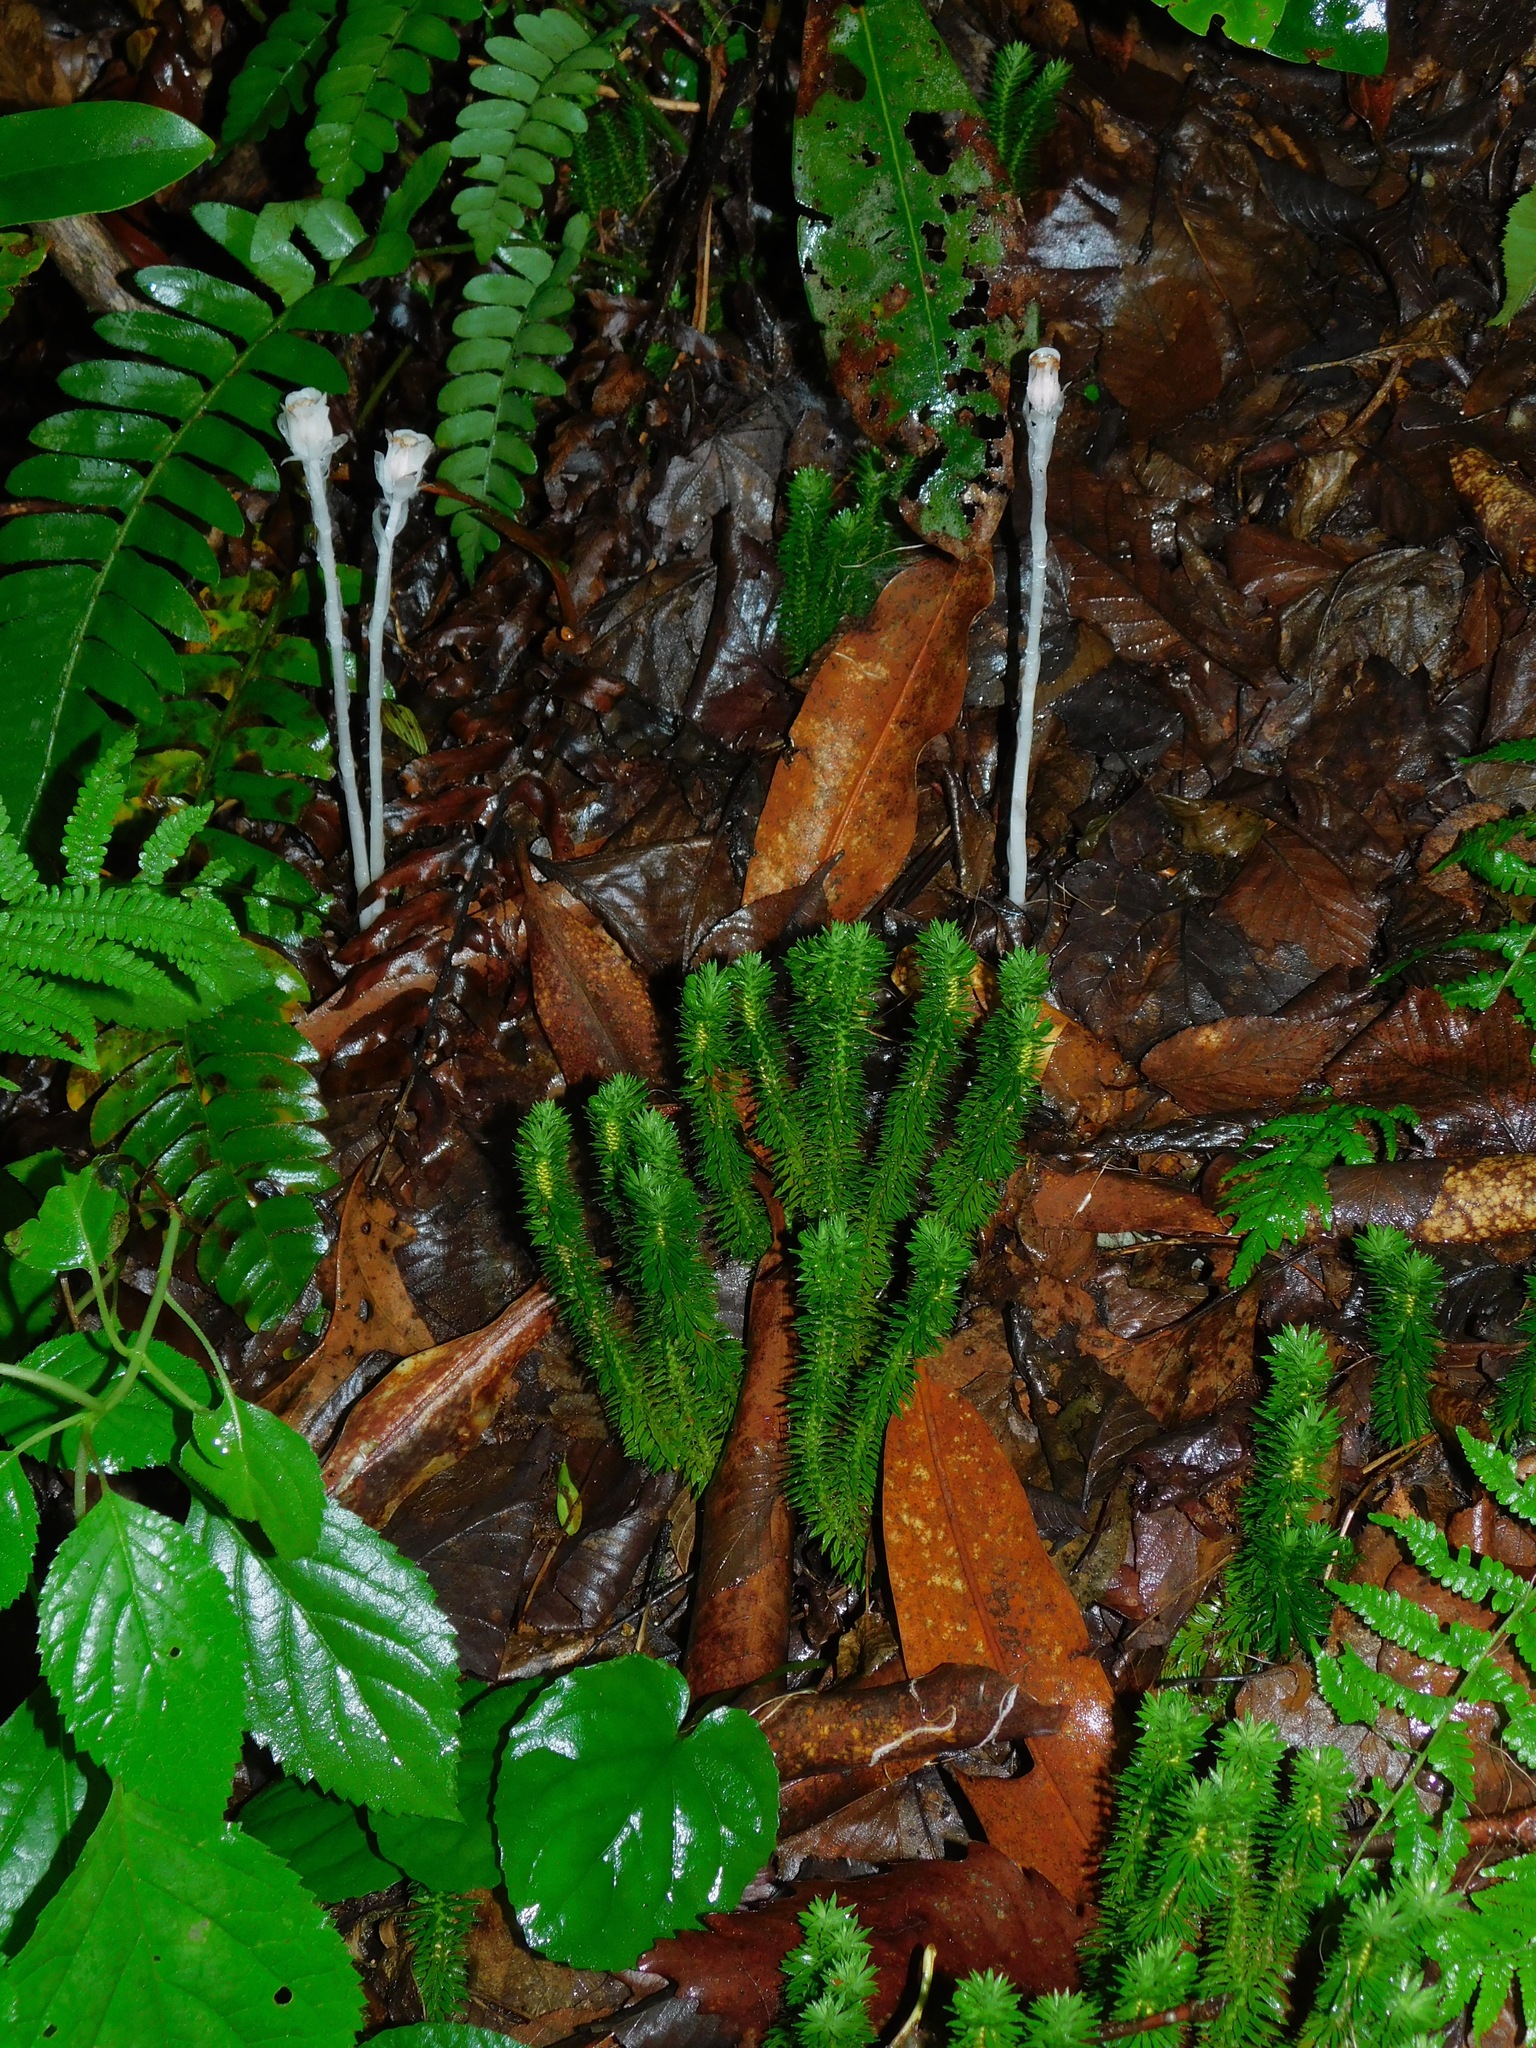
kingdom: Plantae
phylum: Tracheophyta
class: Magnoliopsida
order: Ericales
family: Ericaceae
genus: Monotropa
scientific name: Monotropa uniflora
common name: Convulsion root
